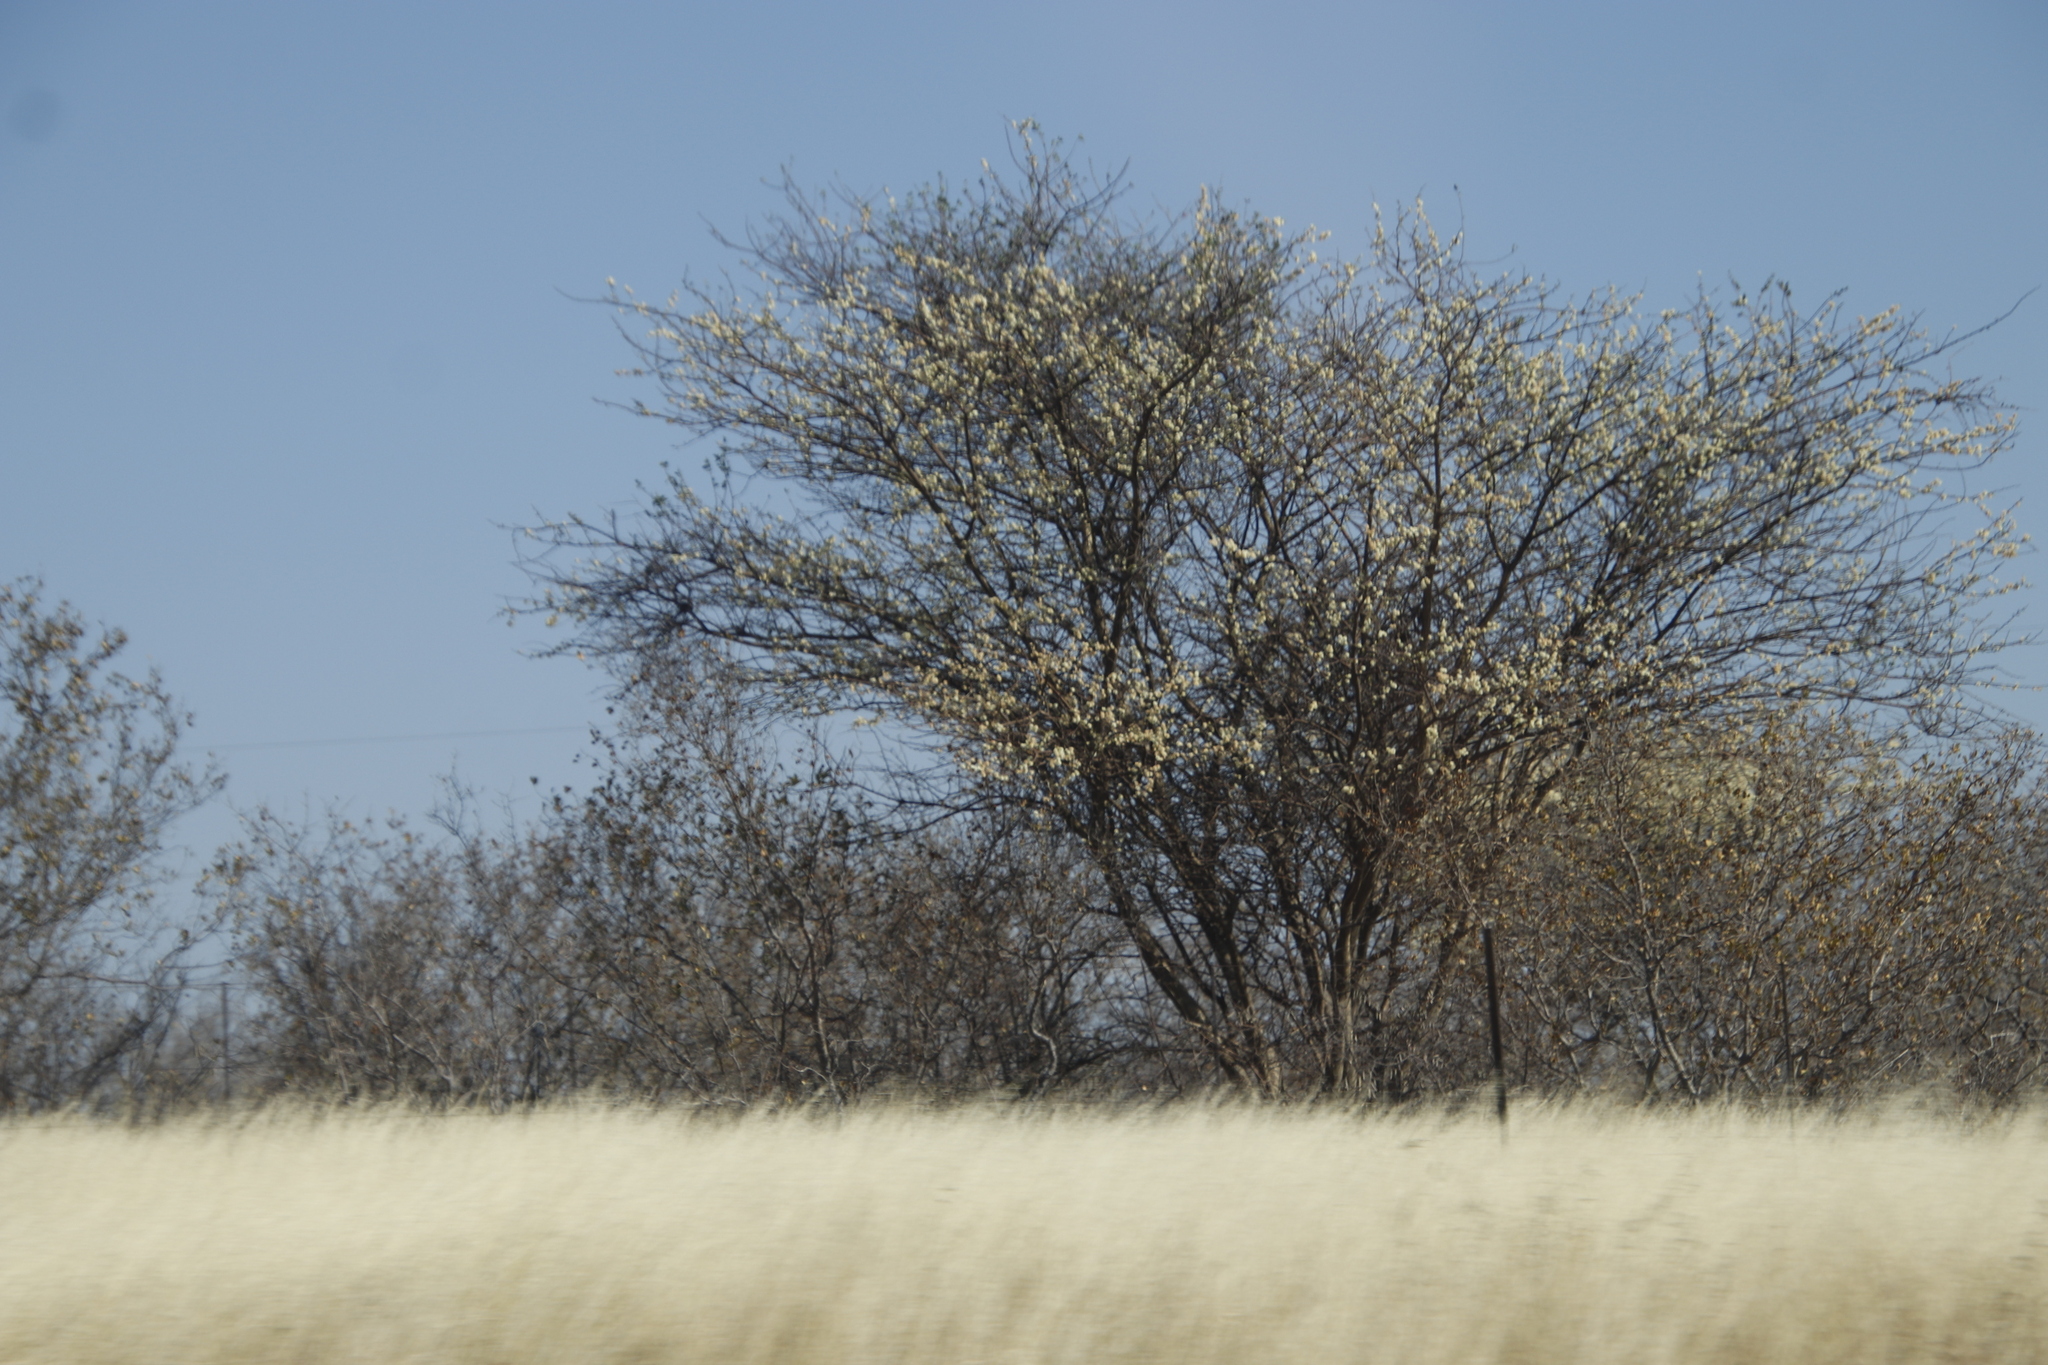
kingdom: Plantae
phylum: Tracheophyta
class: Magnoliopsida
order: Fabales
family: Fabaceae
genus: Senegalia
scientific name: Senegalia mellifera
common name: Hookthorn
